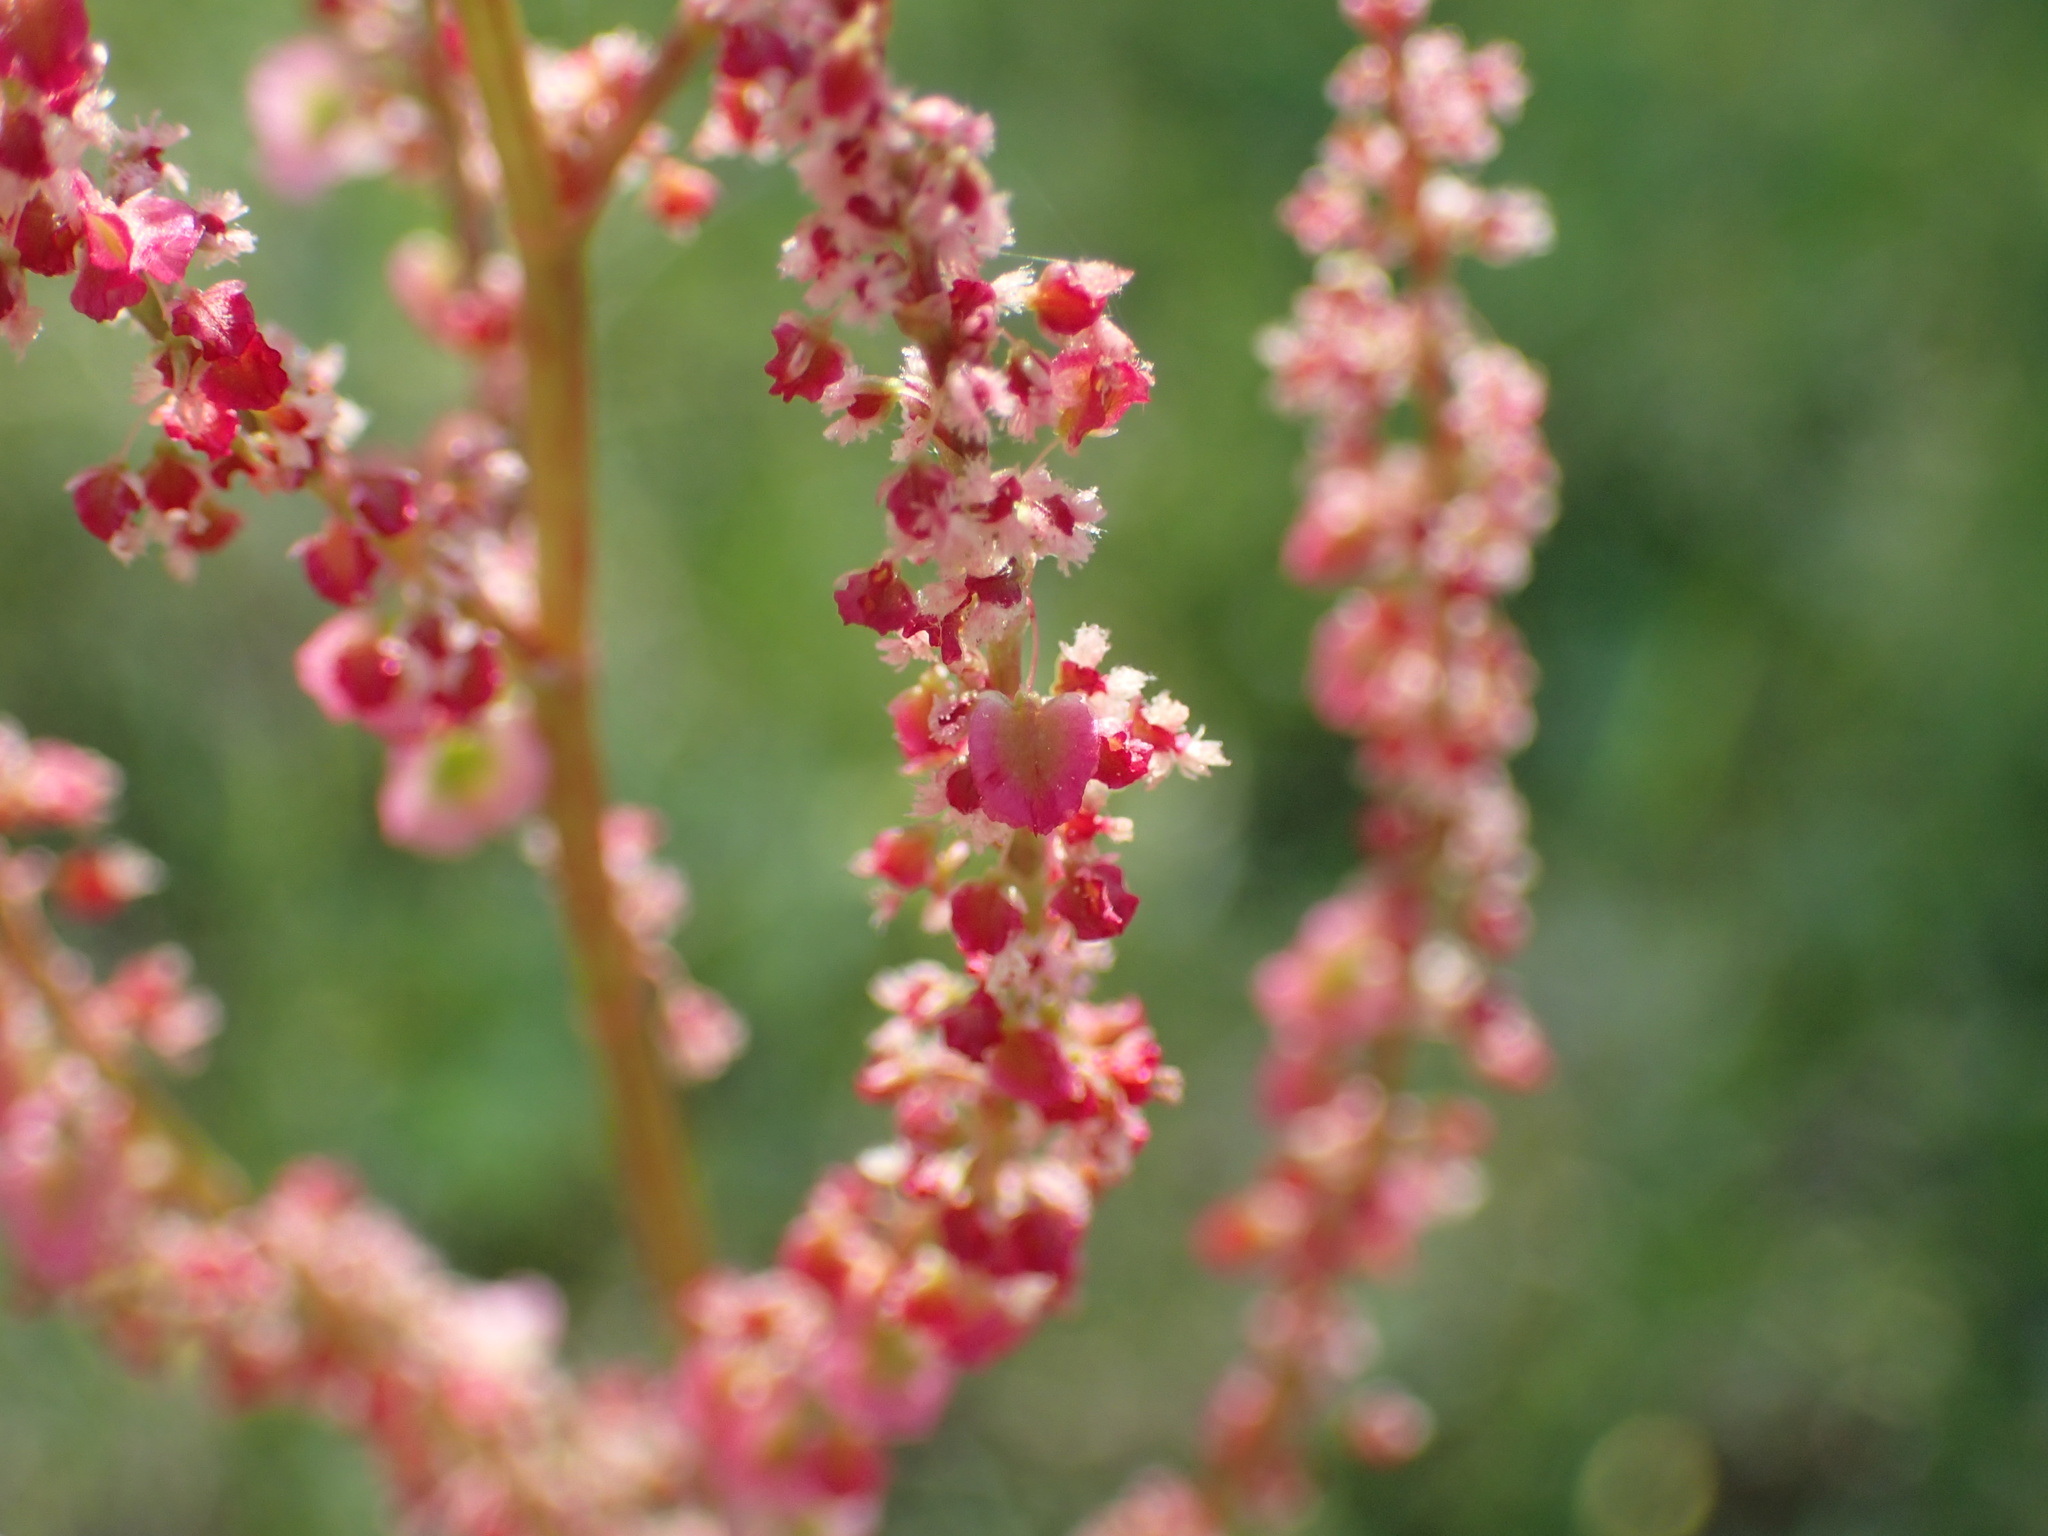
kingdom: Plantae
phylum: Tracheophyta
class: Magnoliopsida
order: Caryophyllales
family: Polygonaceae
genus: Rumex
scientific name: Rumex hastatulus
